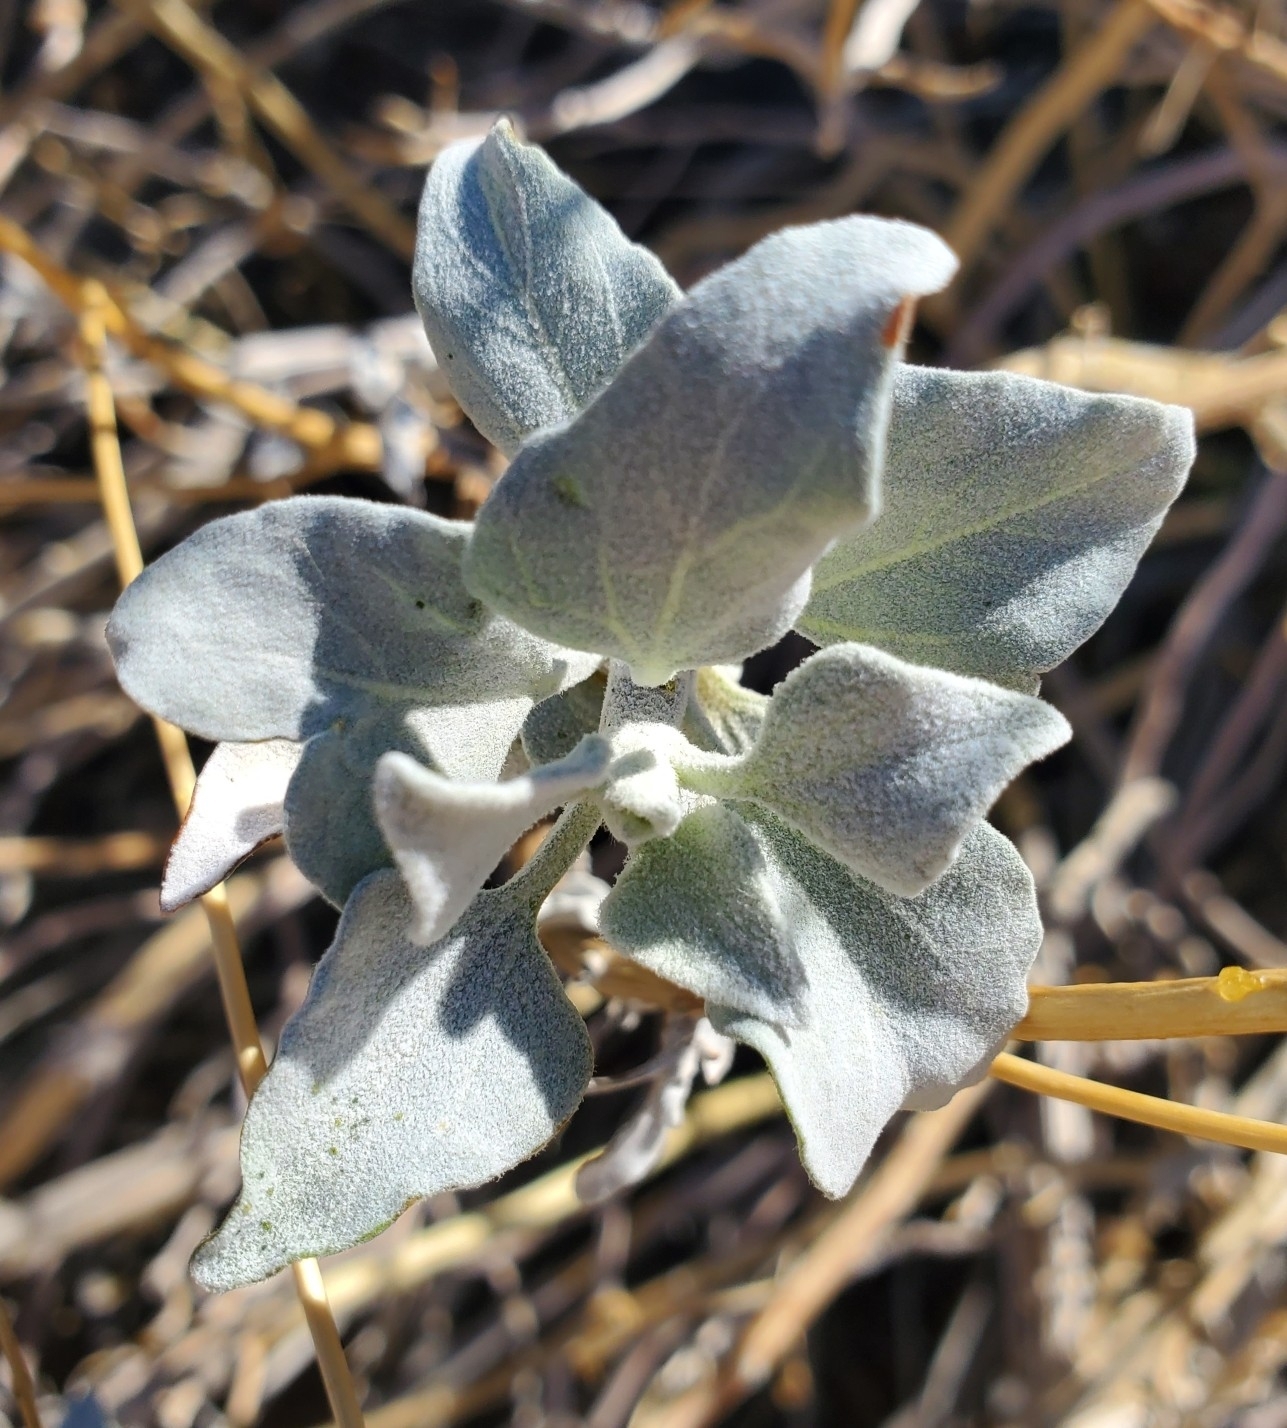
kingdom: Plantae
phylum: Tracheophyta
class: Magnoliopsida
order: Asterales
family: Asteraceae
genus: Encelia
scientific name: Encelia farinosa
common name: Brittlebush
